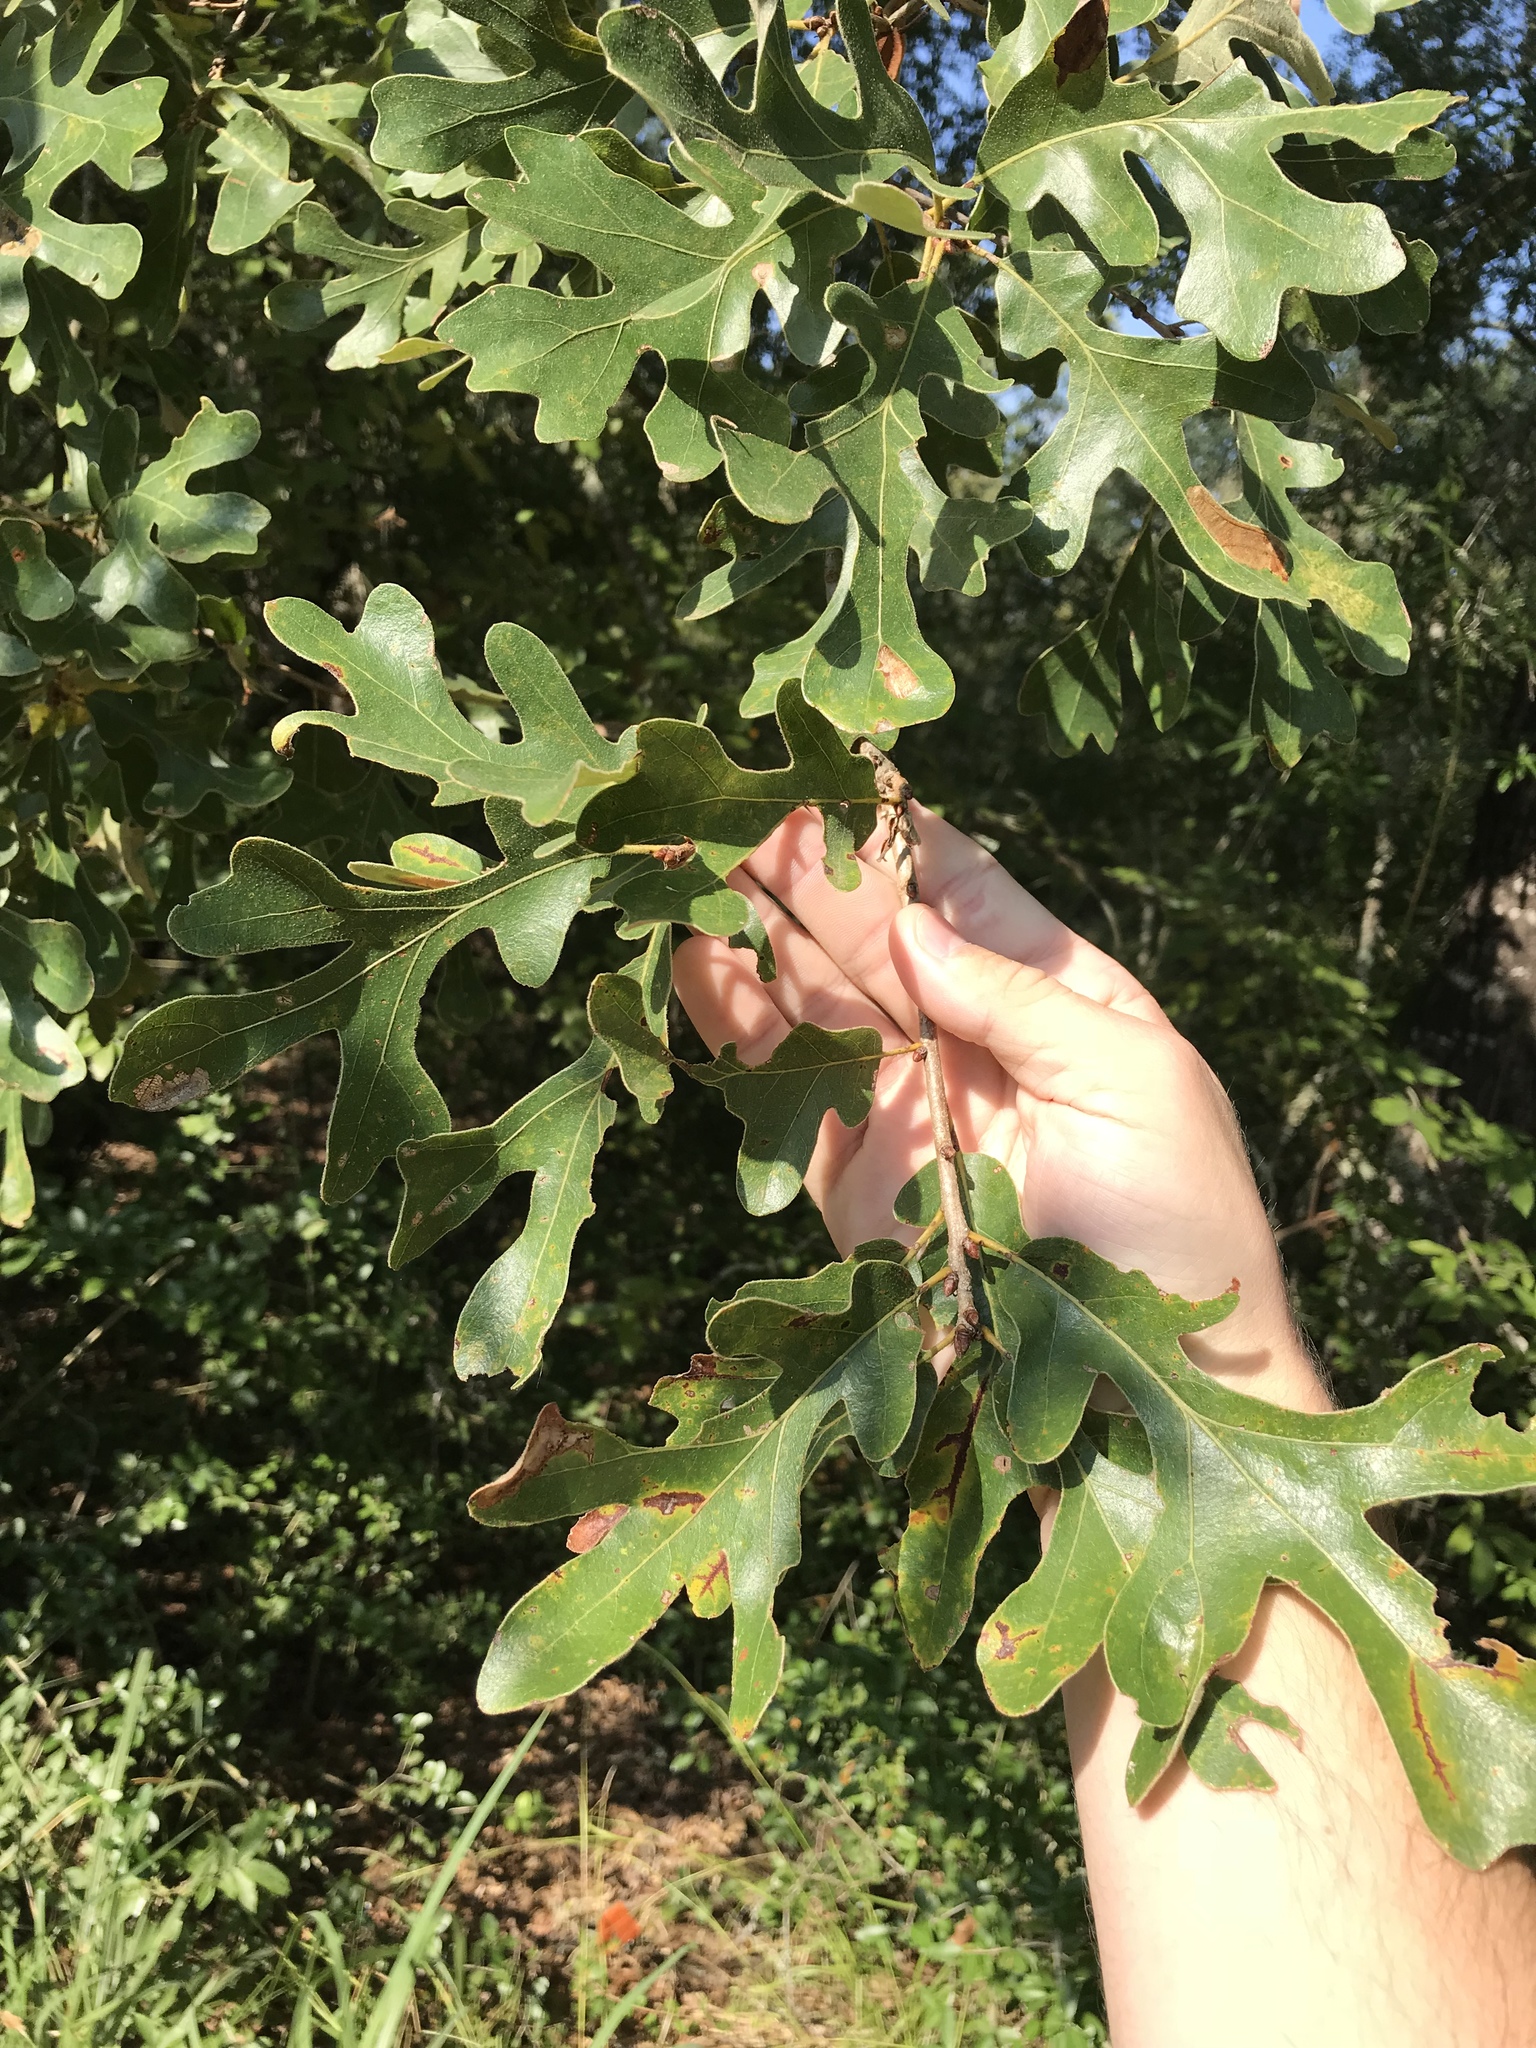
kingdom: Plantae
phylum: Tracheophyta
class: Magnoliopsida
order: Fagales
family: Fagaceae
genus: Quercus
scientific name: Quercus margaretiae
